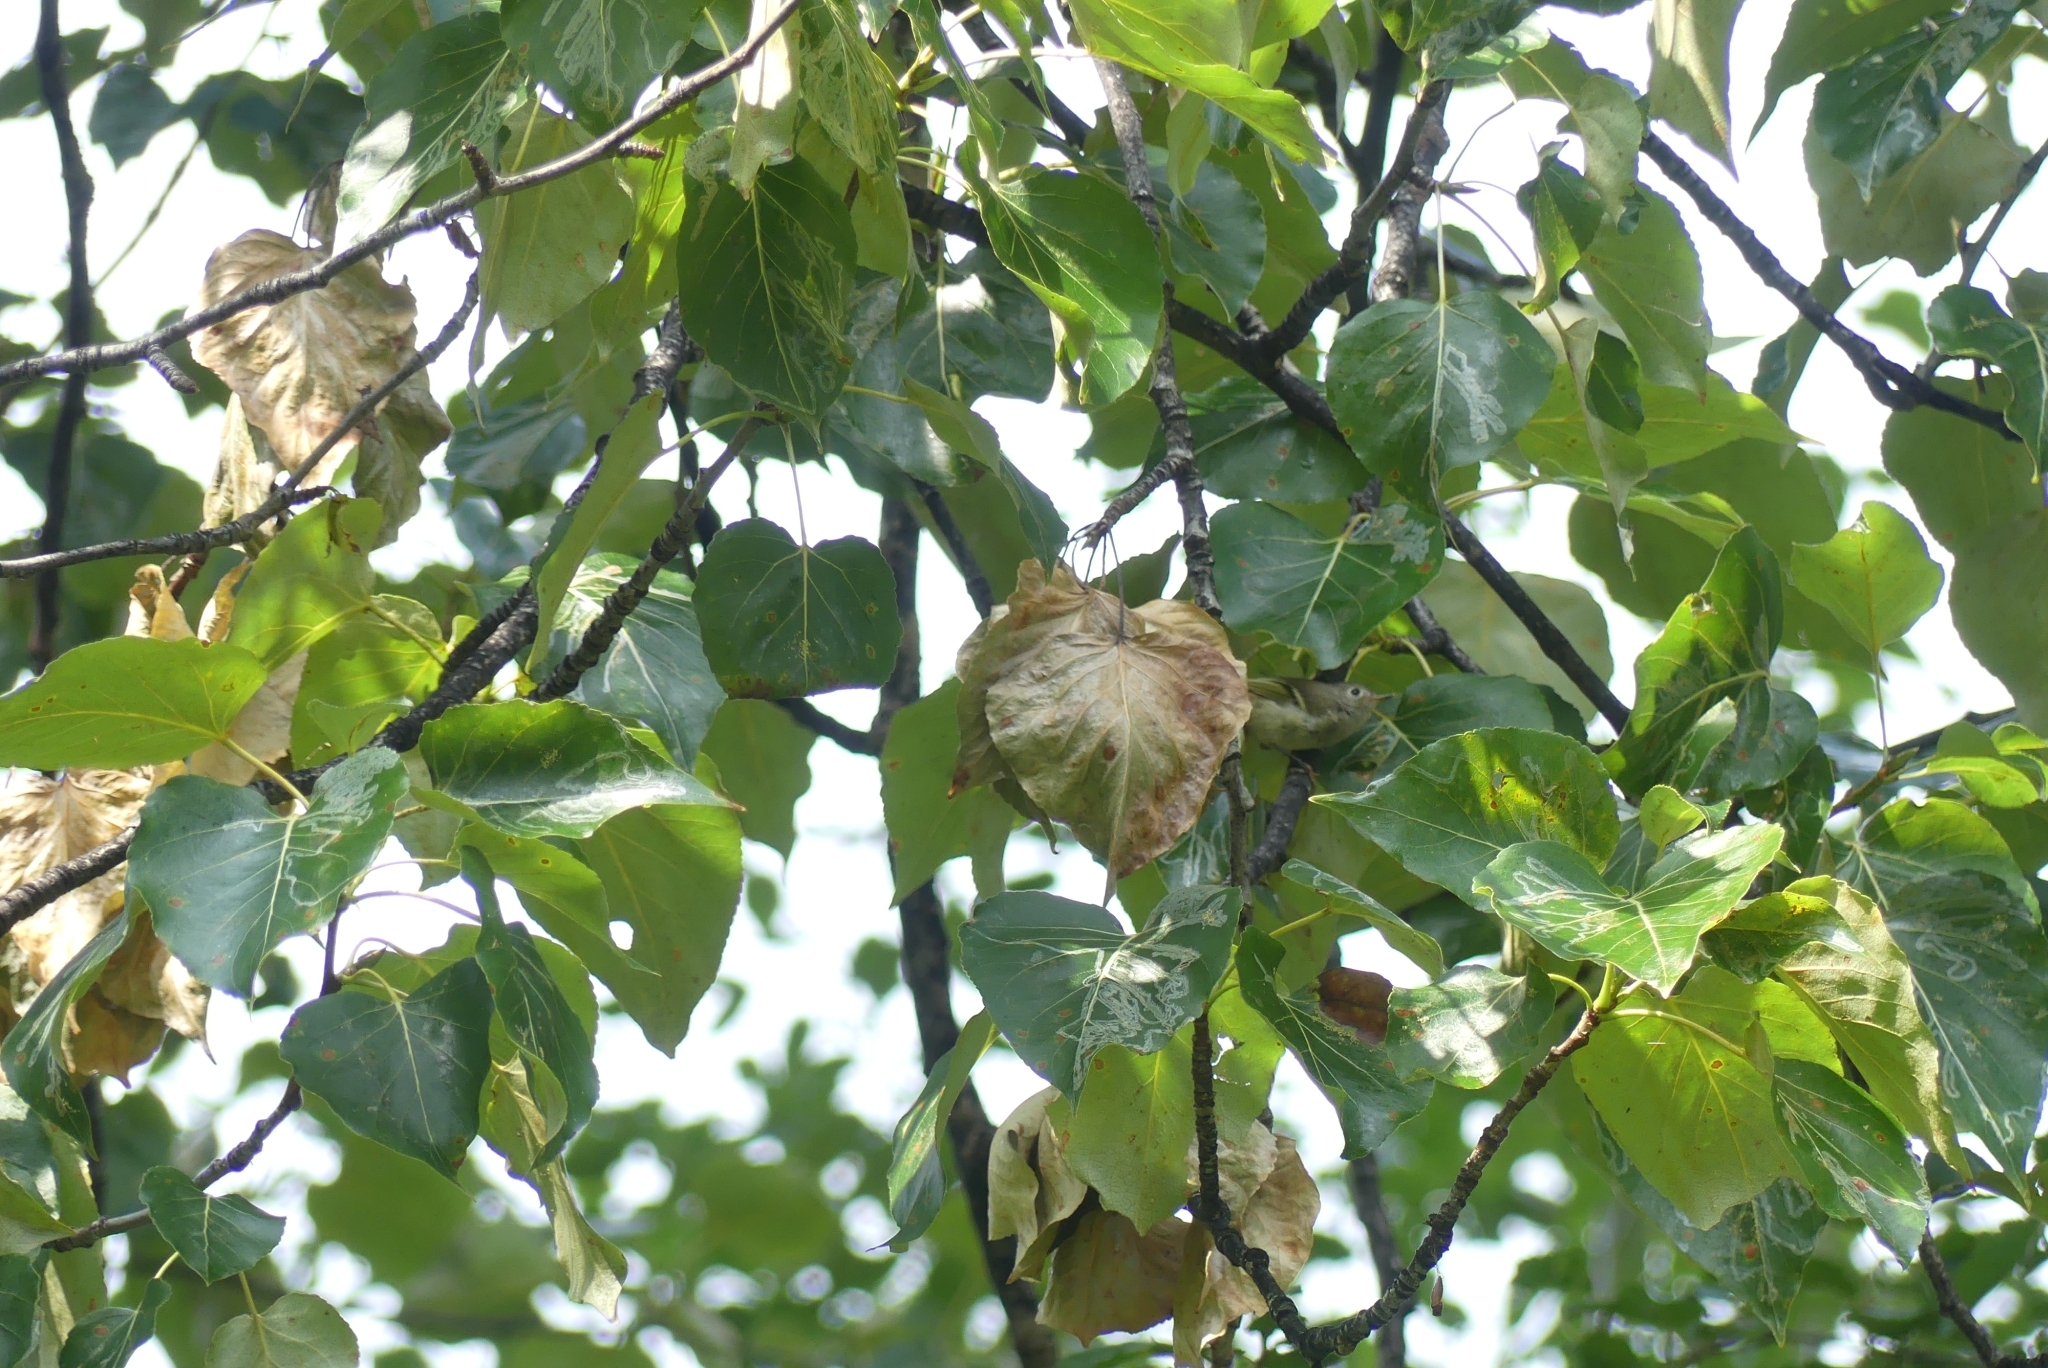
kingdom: Animalia
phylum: Chordata
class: Aves
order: Passeriformes
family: Regulidae
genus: Regulus
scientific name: Regulus calendula
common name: Ruby-crowned kinglet
